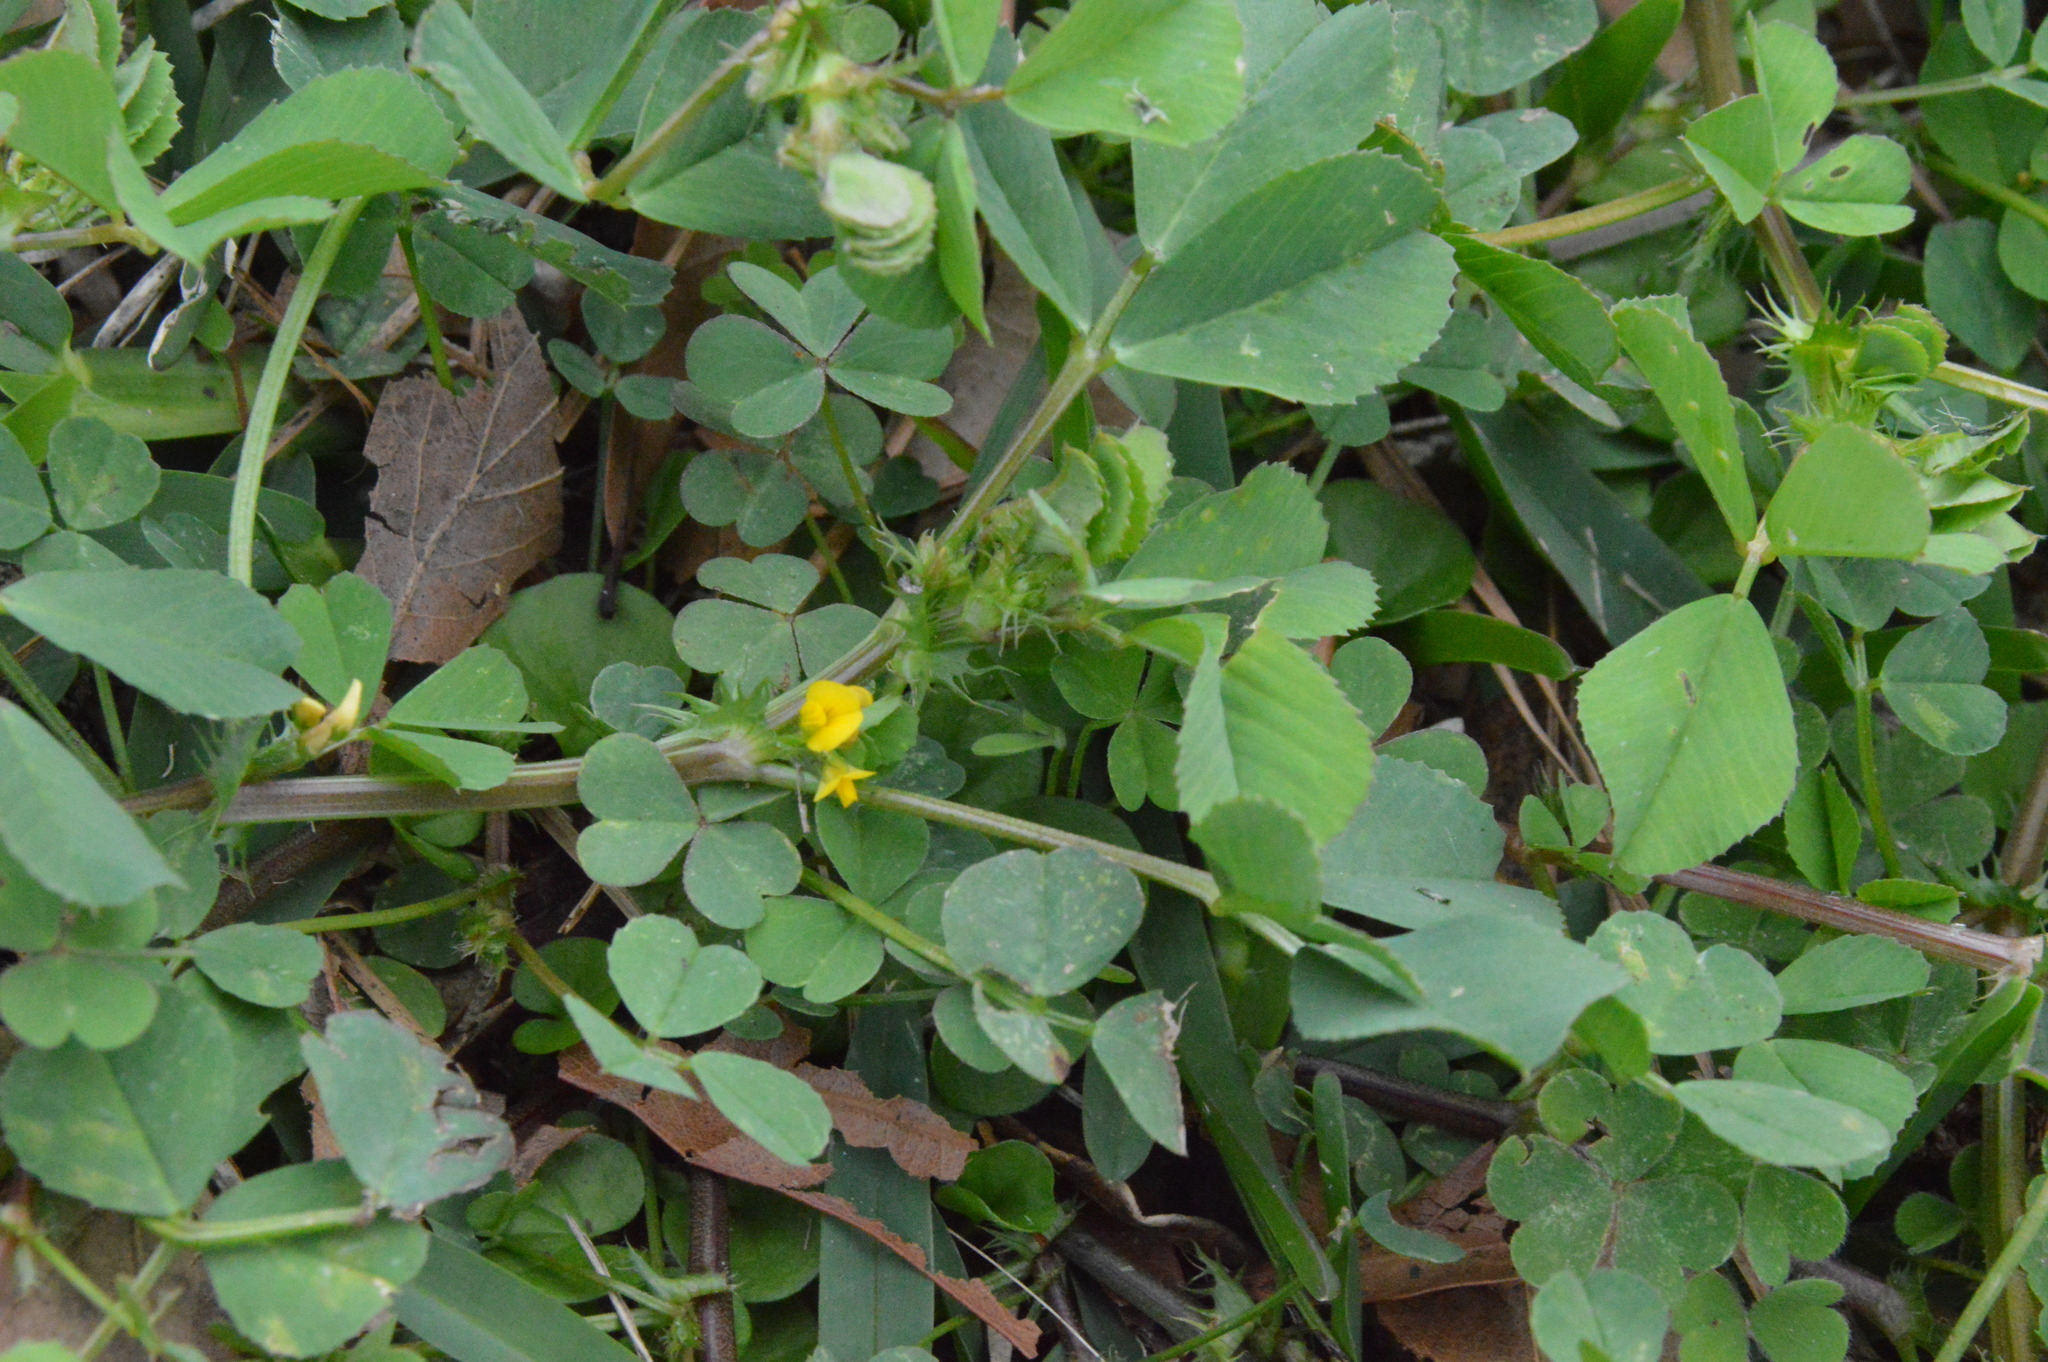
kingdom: Plantae
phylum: Tracheophyta
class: Magnoliopsida
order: Fabales
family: Fabaceae
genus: Medicago
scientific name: Medicago polymorpha
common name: Burclover
